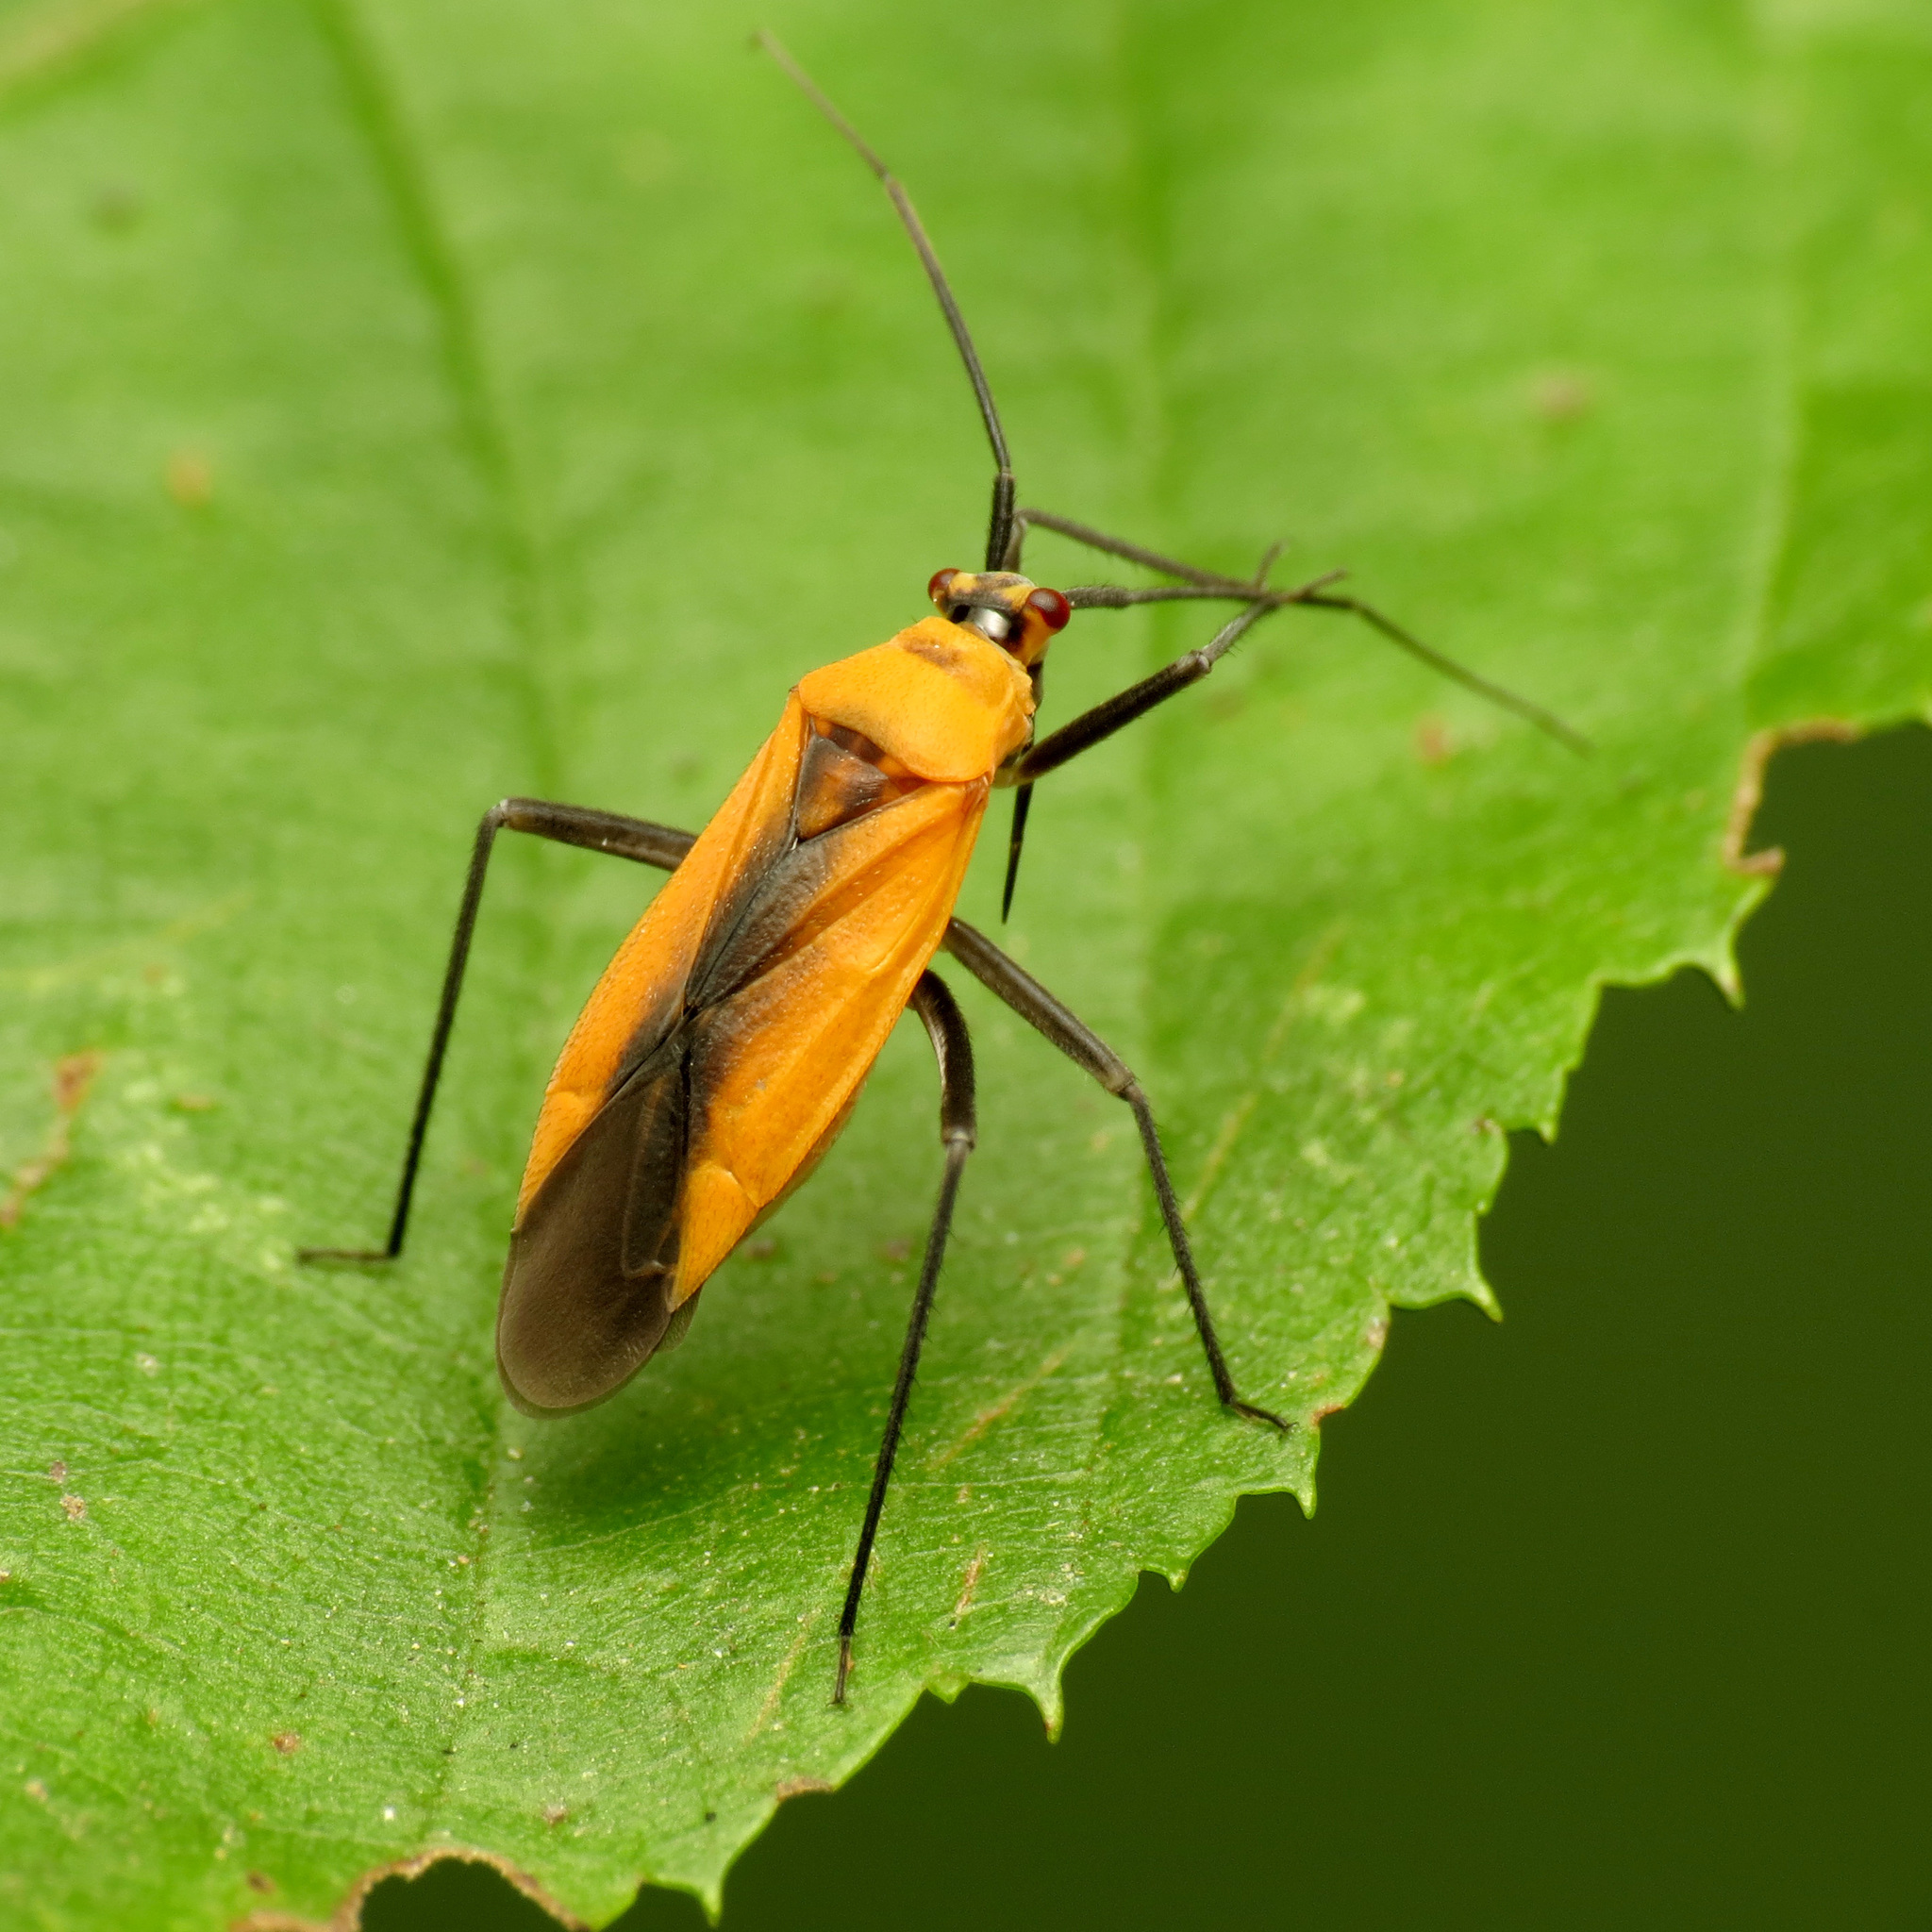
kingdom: Animalia
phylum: Arthropoda
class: Insecta
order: Hemiptera
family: Miridae
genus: Lopidea
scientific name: Lopidea
